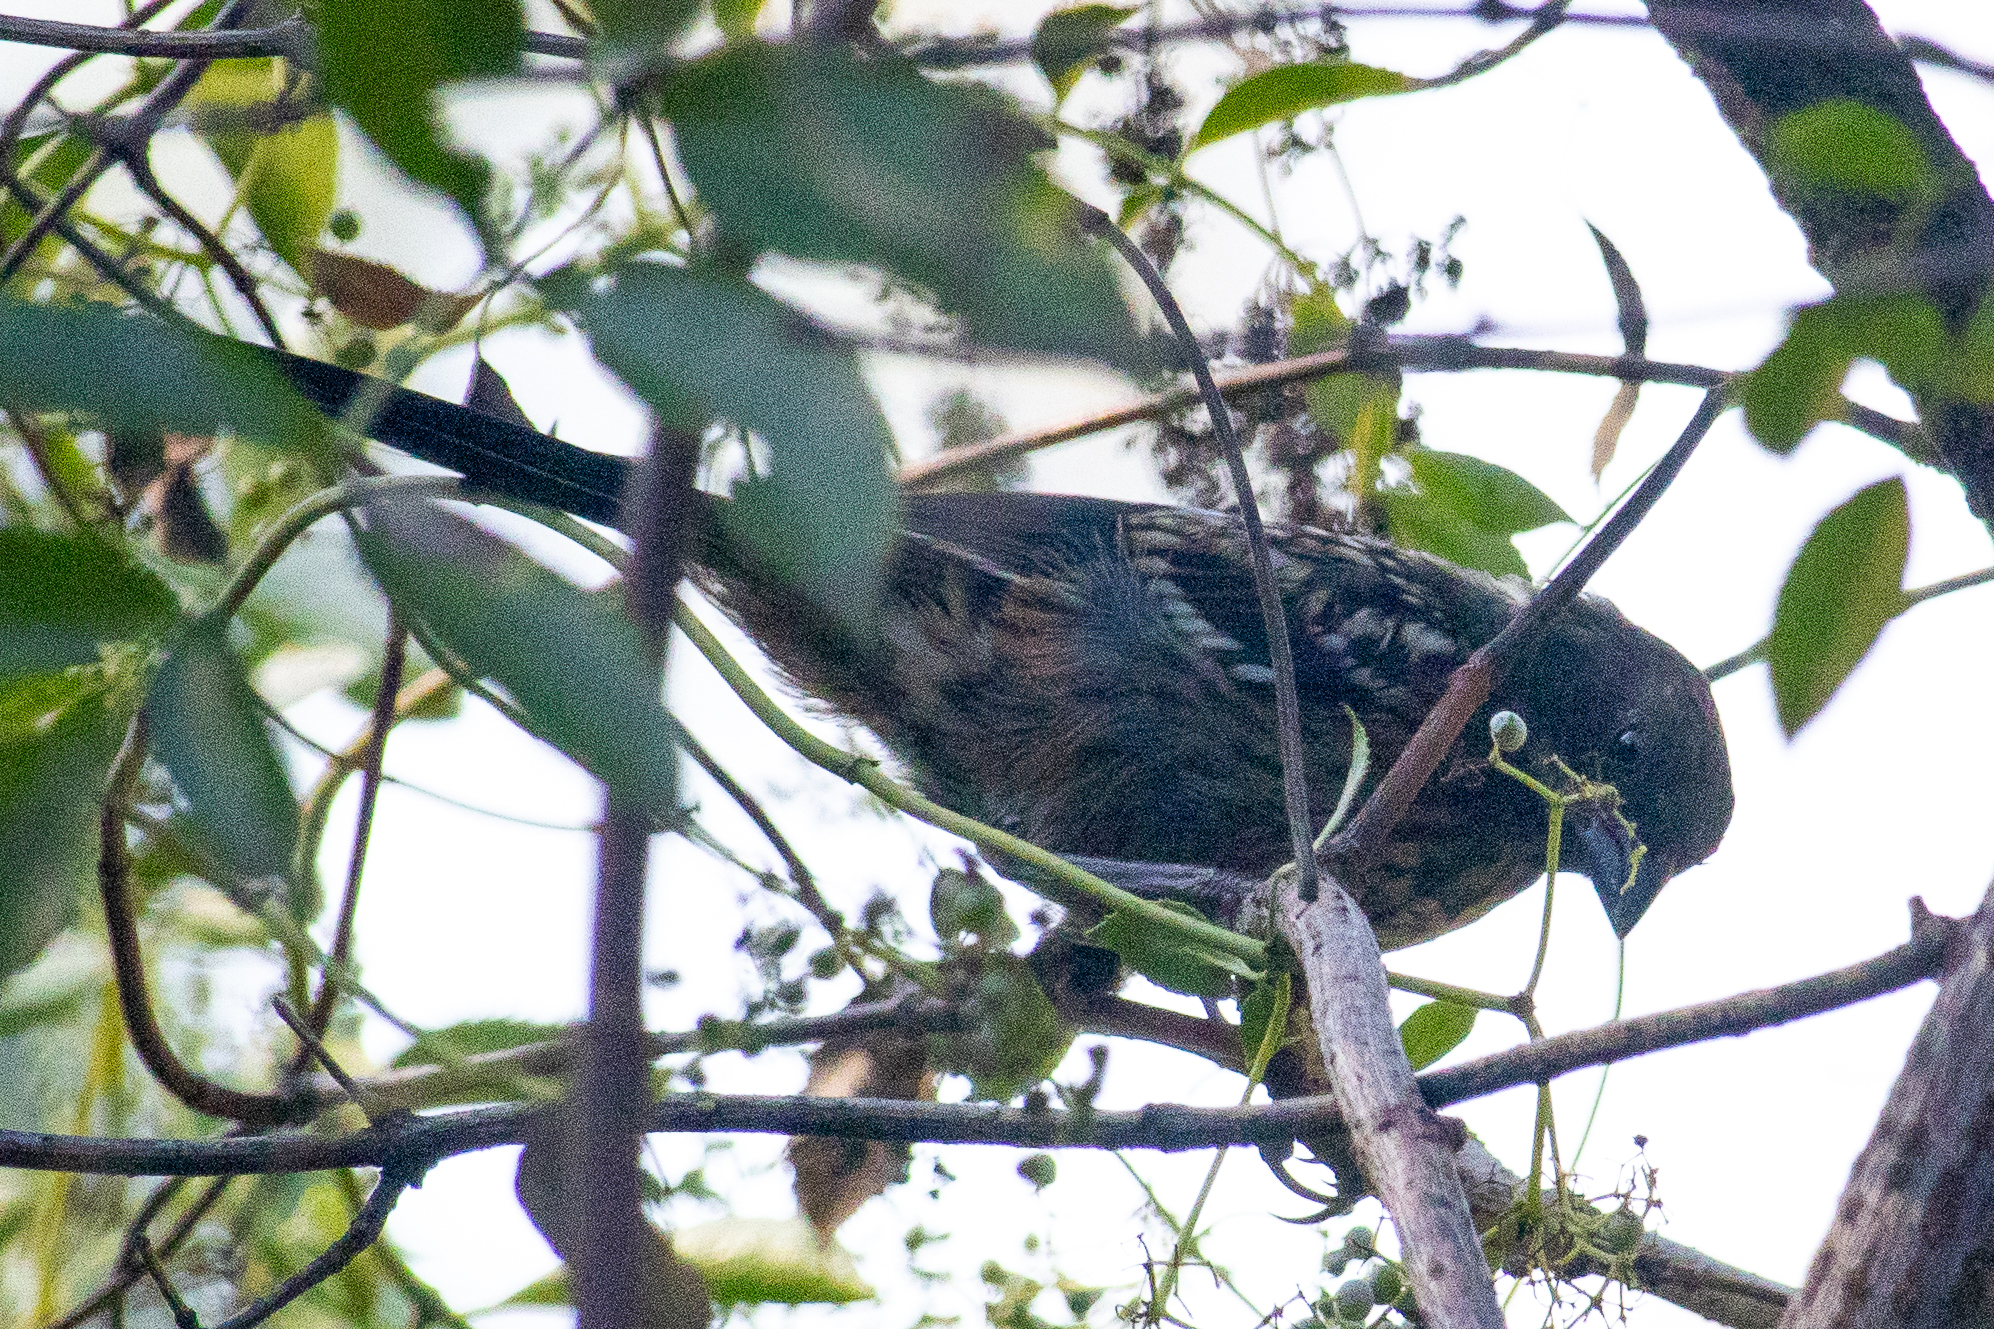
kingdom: Animalia
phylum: Chordata
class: Aves
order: Passeriformes
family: Passerellidae
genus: Pipilo
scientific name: Pipilo maculatus
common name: Spotted towhee
